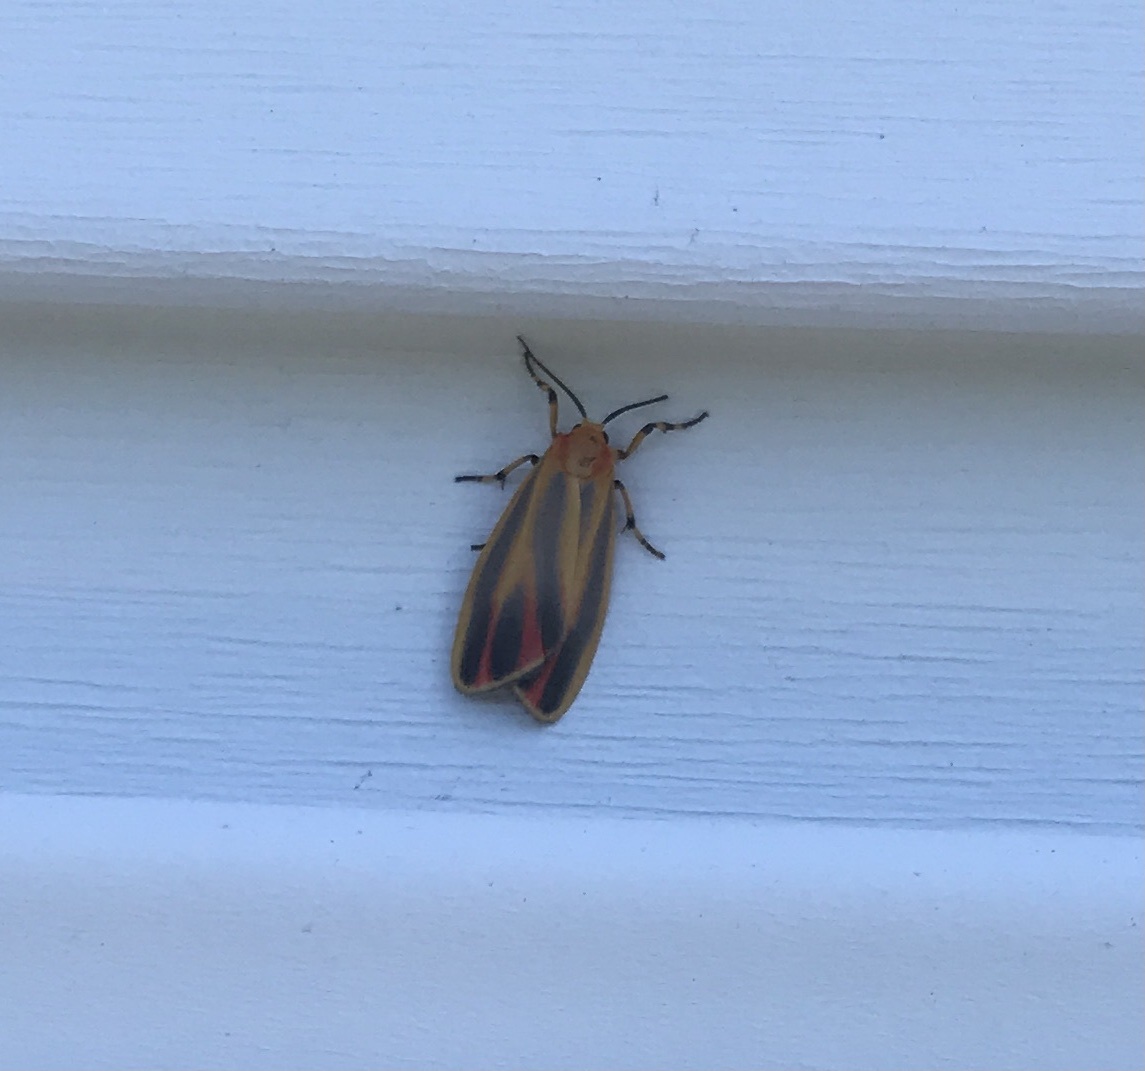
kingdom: Animalia
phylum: Arthropoda
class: Insecta
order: Lepidoptera
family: Erebidae
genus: Hypoprepia
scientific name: Hypoprepia fucosa
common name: Painted lichen moth
